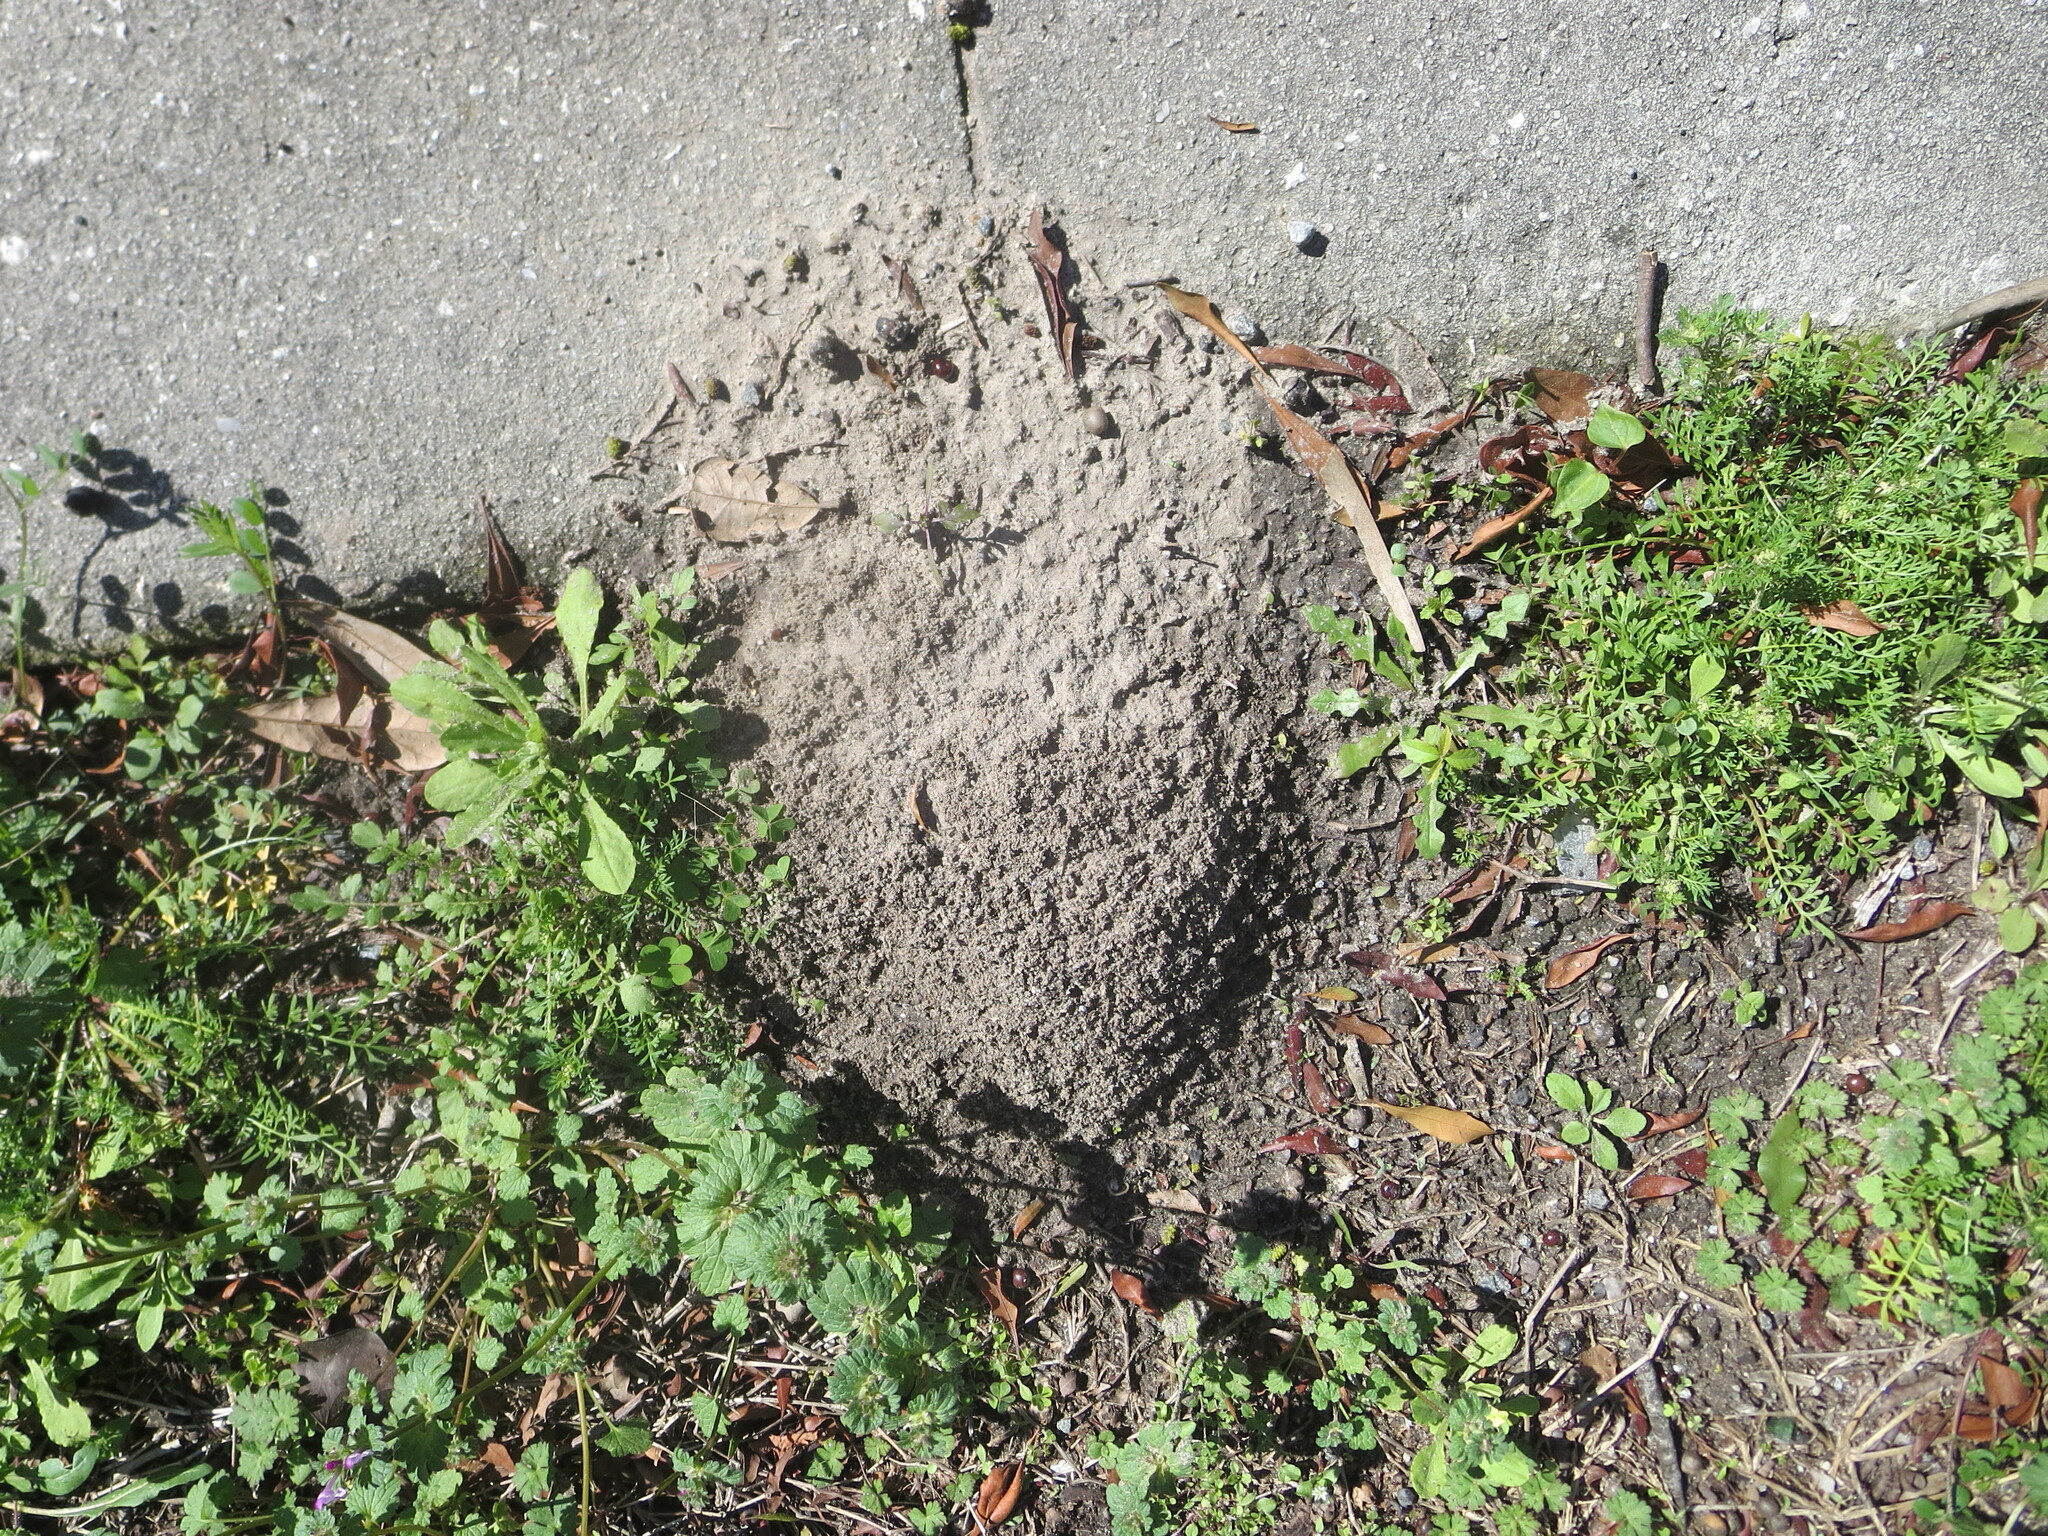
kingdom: Animalia
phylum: Arthropoda
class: Insecta
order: Hymenoptera
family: Formicidae
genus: Solenopsis
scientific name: Solenopsis invicta
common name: Red imported fire ant
